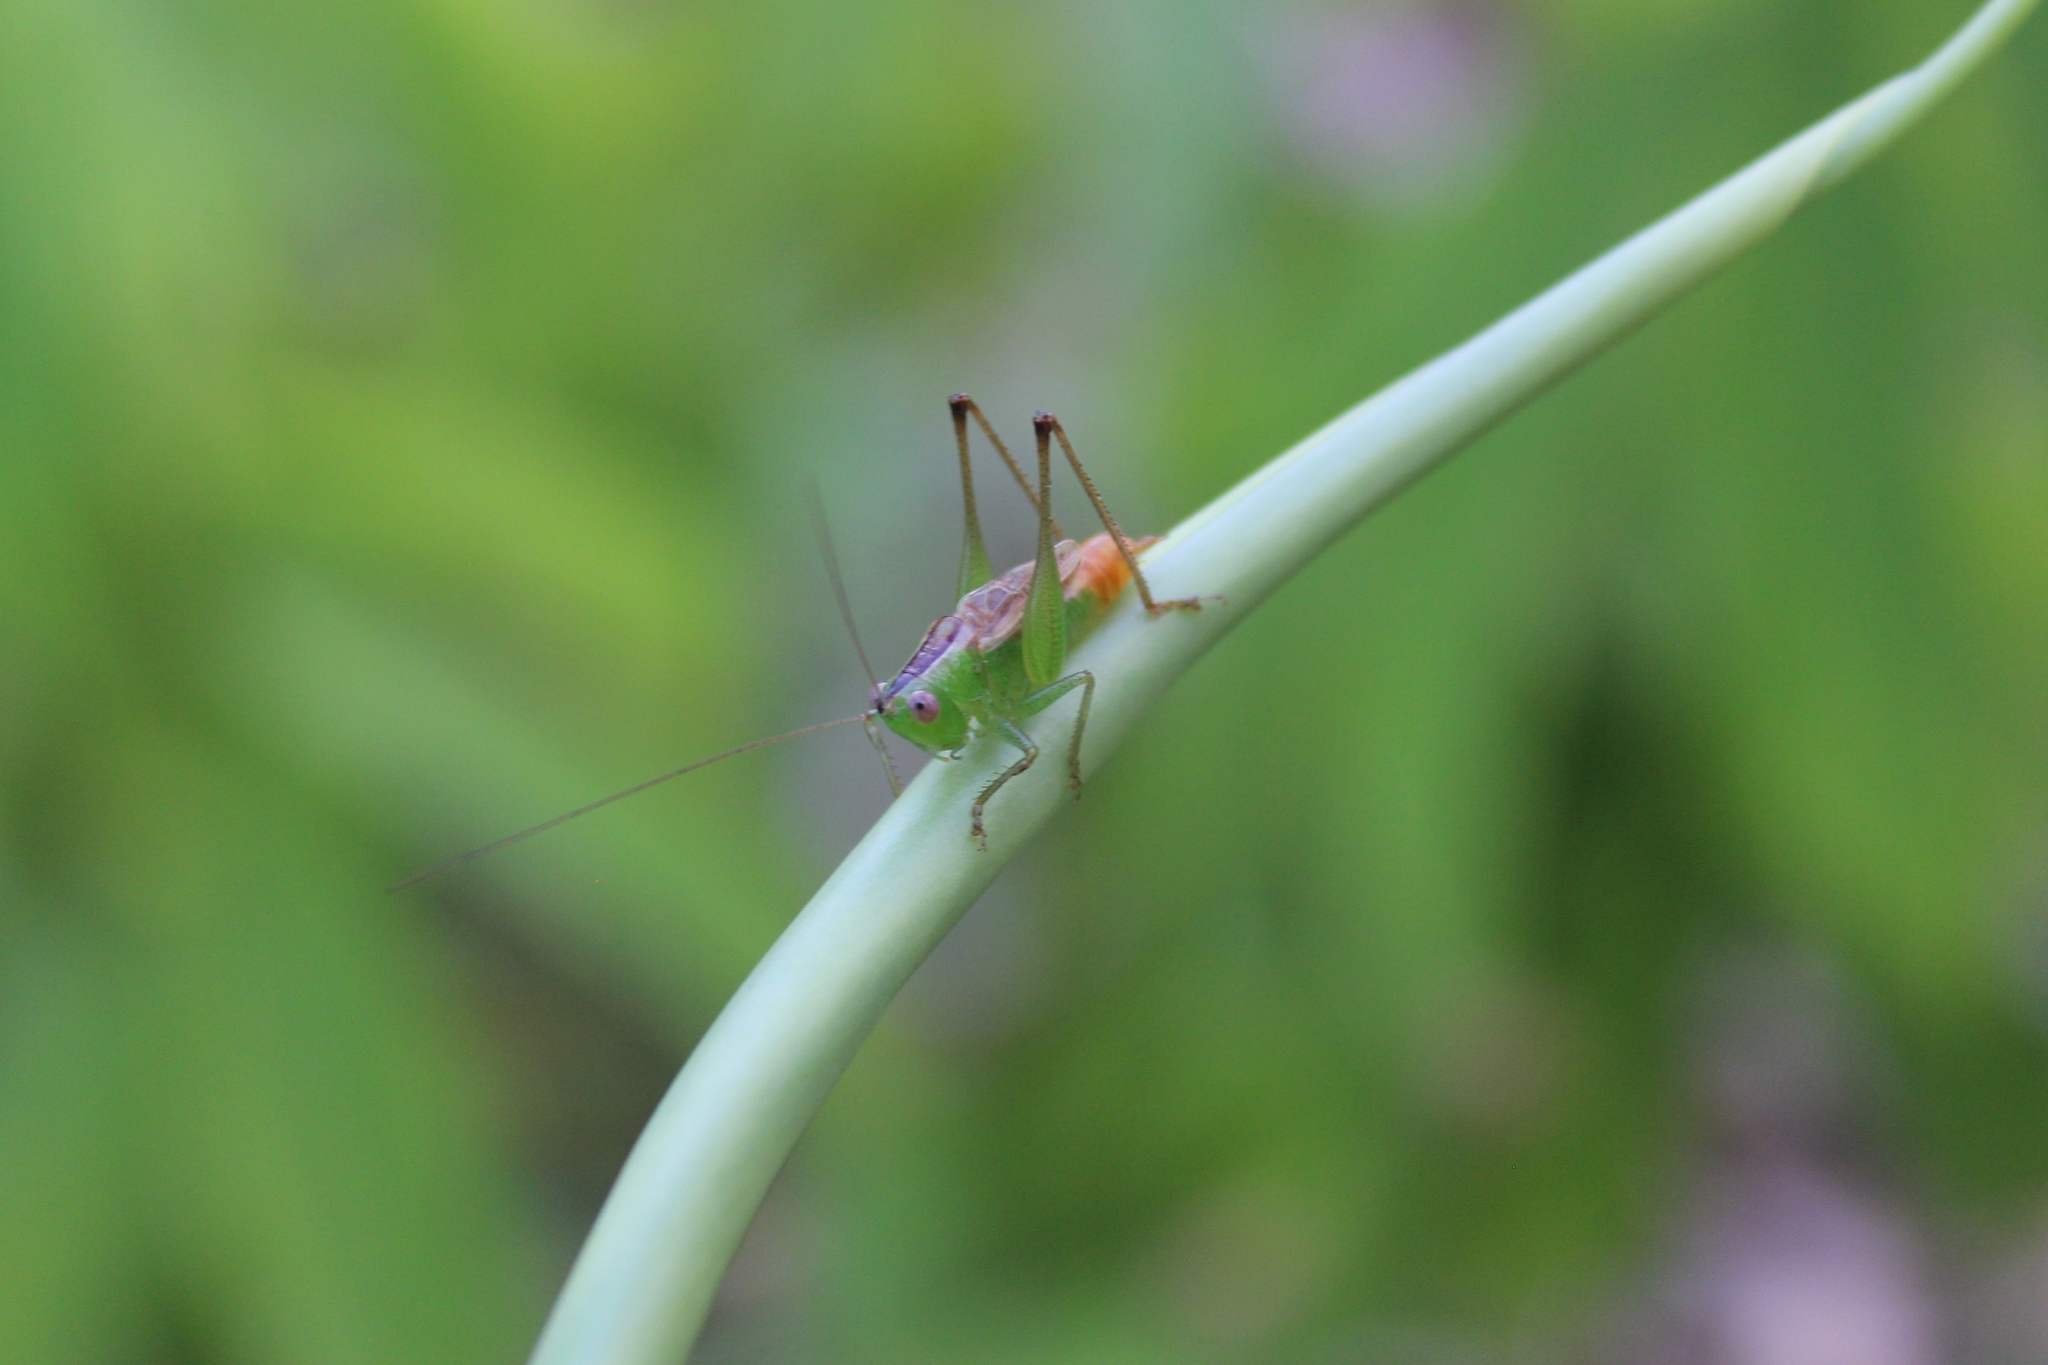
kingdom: Animalia
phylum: Arthropoda
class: Insecta
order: Orthoptera
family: Tettigoniidae
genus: Conocephalus
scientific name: Conocephalus ictus
